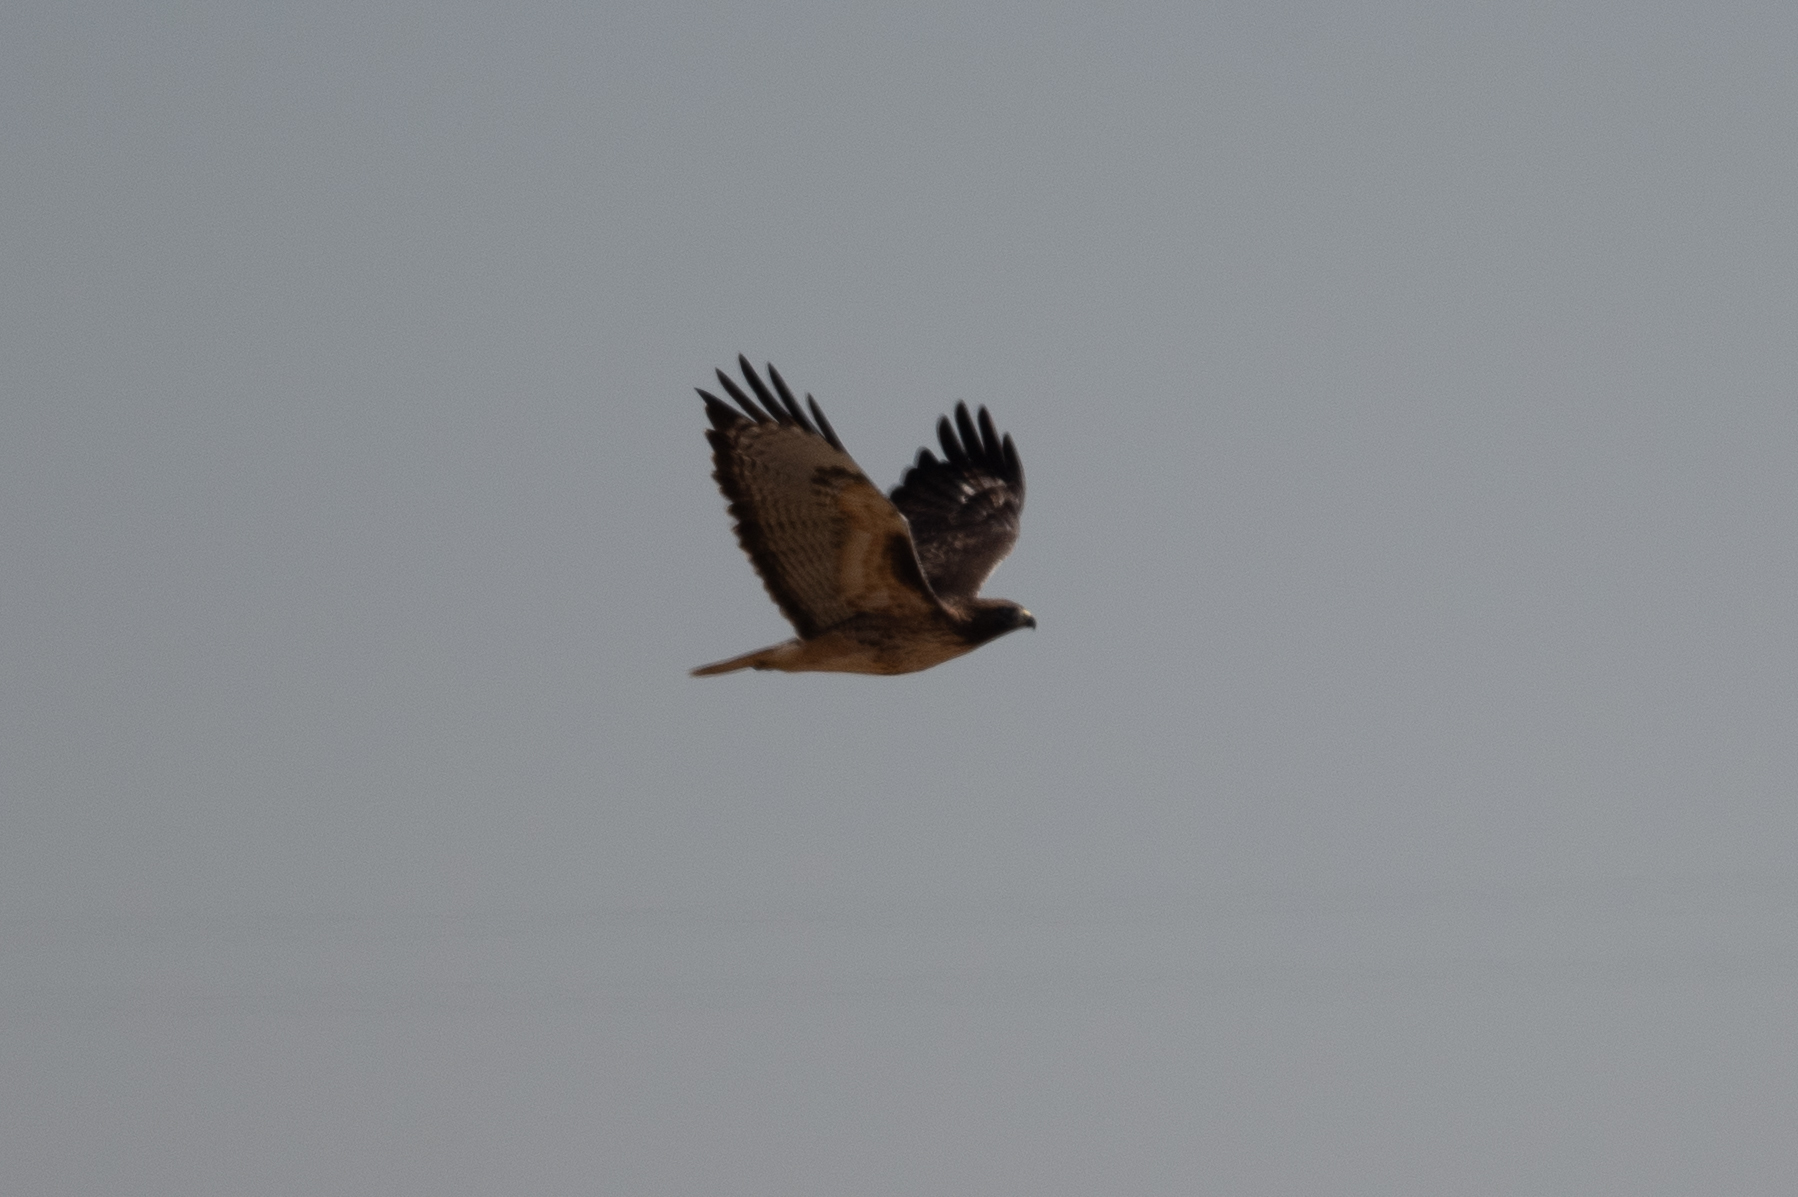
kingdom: Animalia
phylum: Chordata
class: Aves
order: Accipitriformes
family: Accipitridae
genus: Buteo
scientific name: Buteo jamaicensis
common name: Red-tailed hawk
